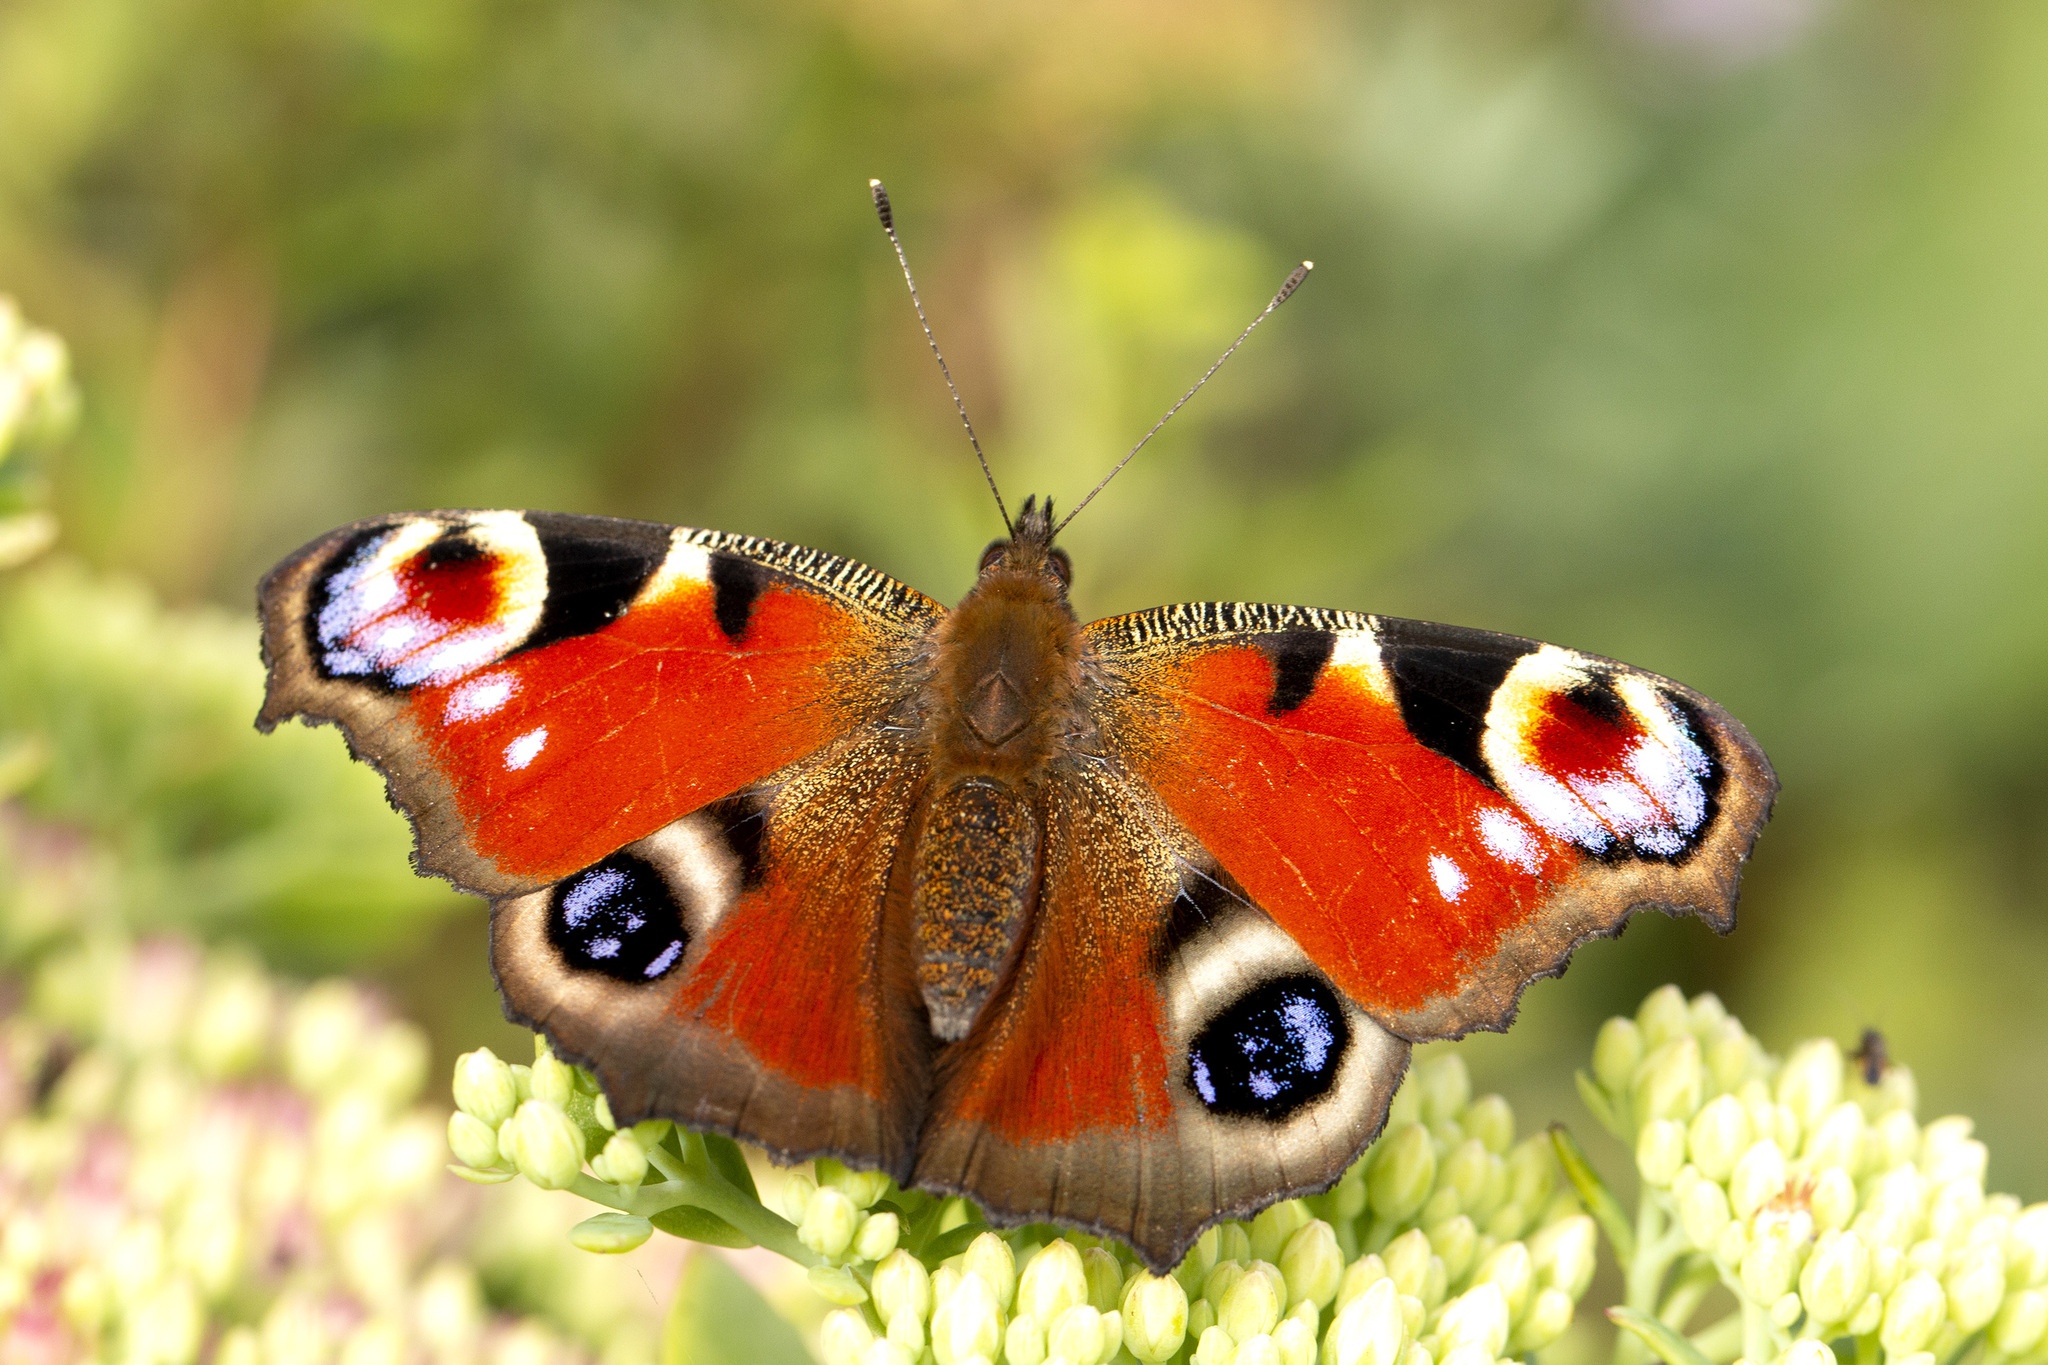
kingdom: Animalia
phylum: Arthropoda
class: Insecta
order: Lepidoptera
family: Nymphalidae
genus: Aglais
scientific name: Aglais io
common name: Peacock
